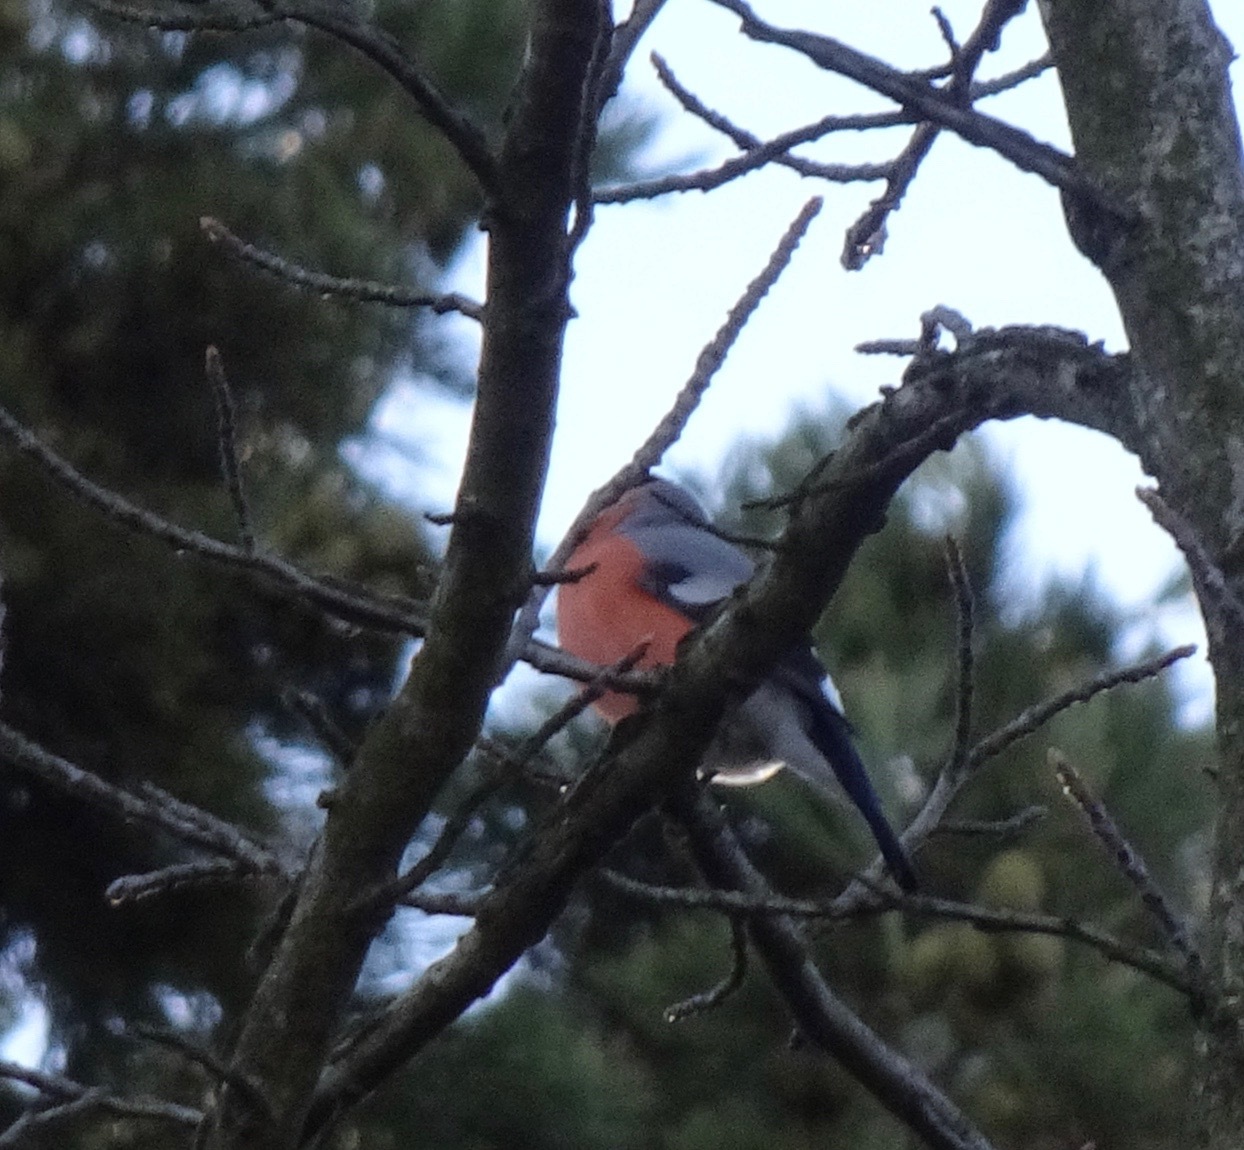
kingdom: Animalia
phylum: Chordata
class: Aves
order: Passeriformes
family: Fringillidae
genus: Pyrrhula
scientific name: Pyrrhula pyrrhula
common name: Eurasian bullfinch
